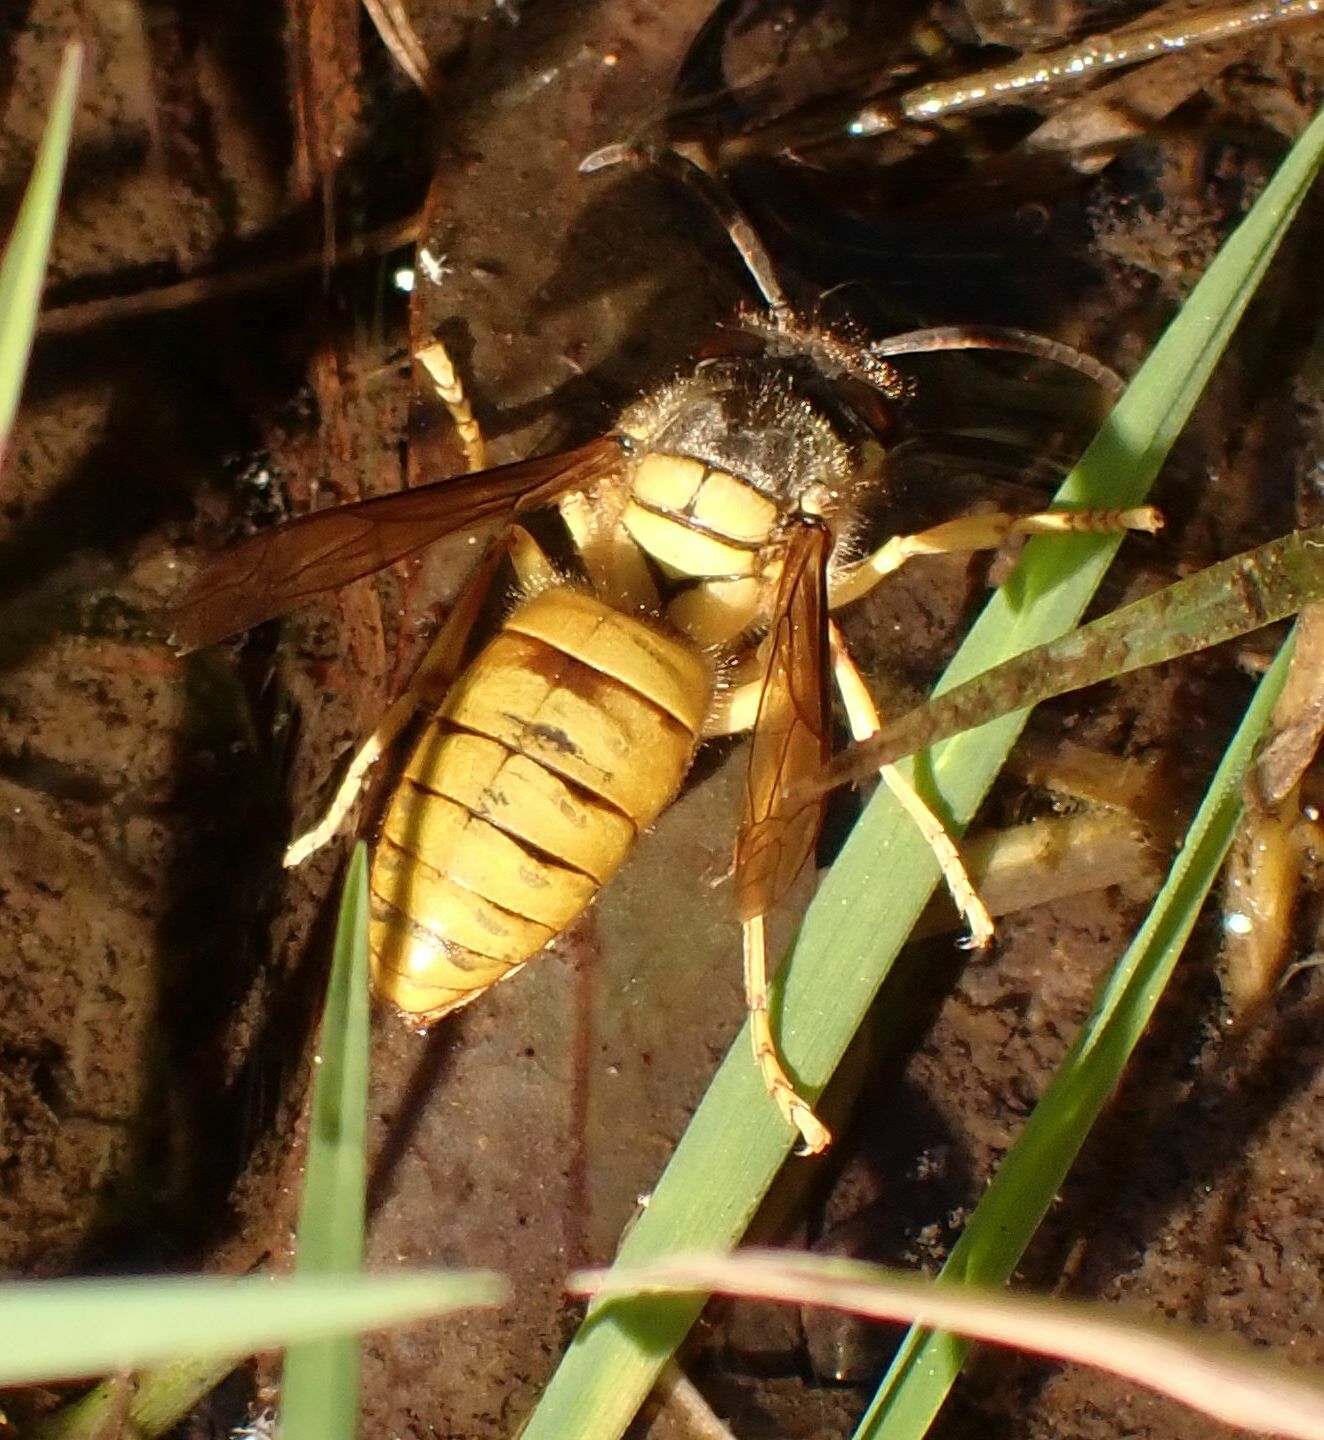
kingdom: Animalia
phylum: Arthropoda
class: Insecta
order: Hymenoptera
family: Vespidae
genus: Vespa
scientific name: Vespa bicolor
